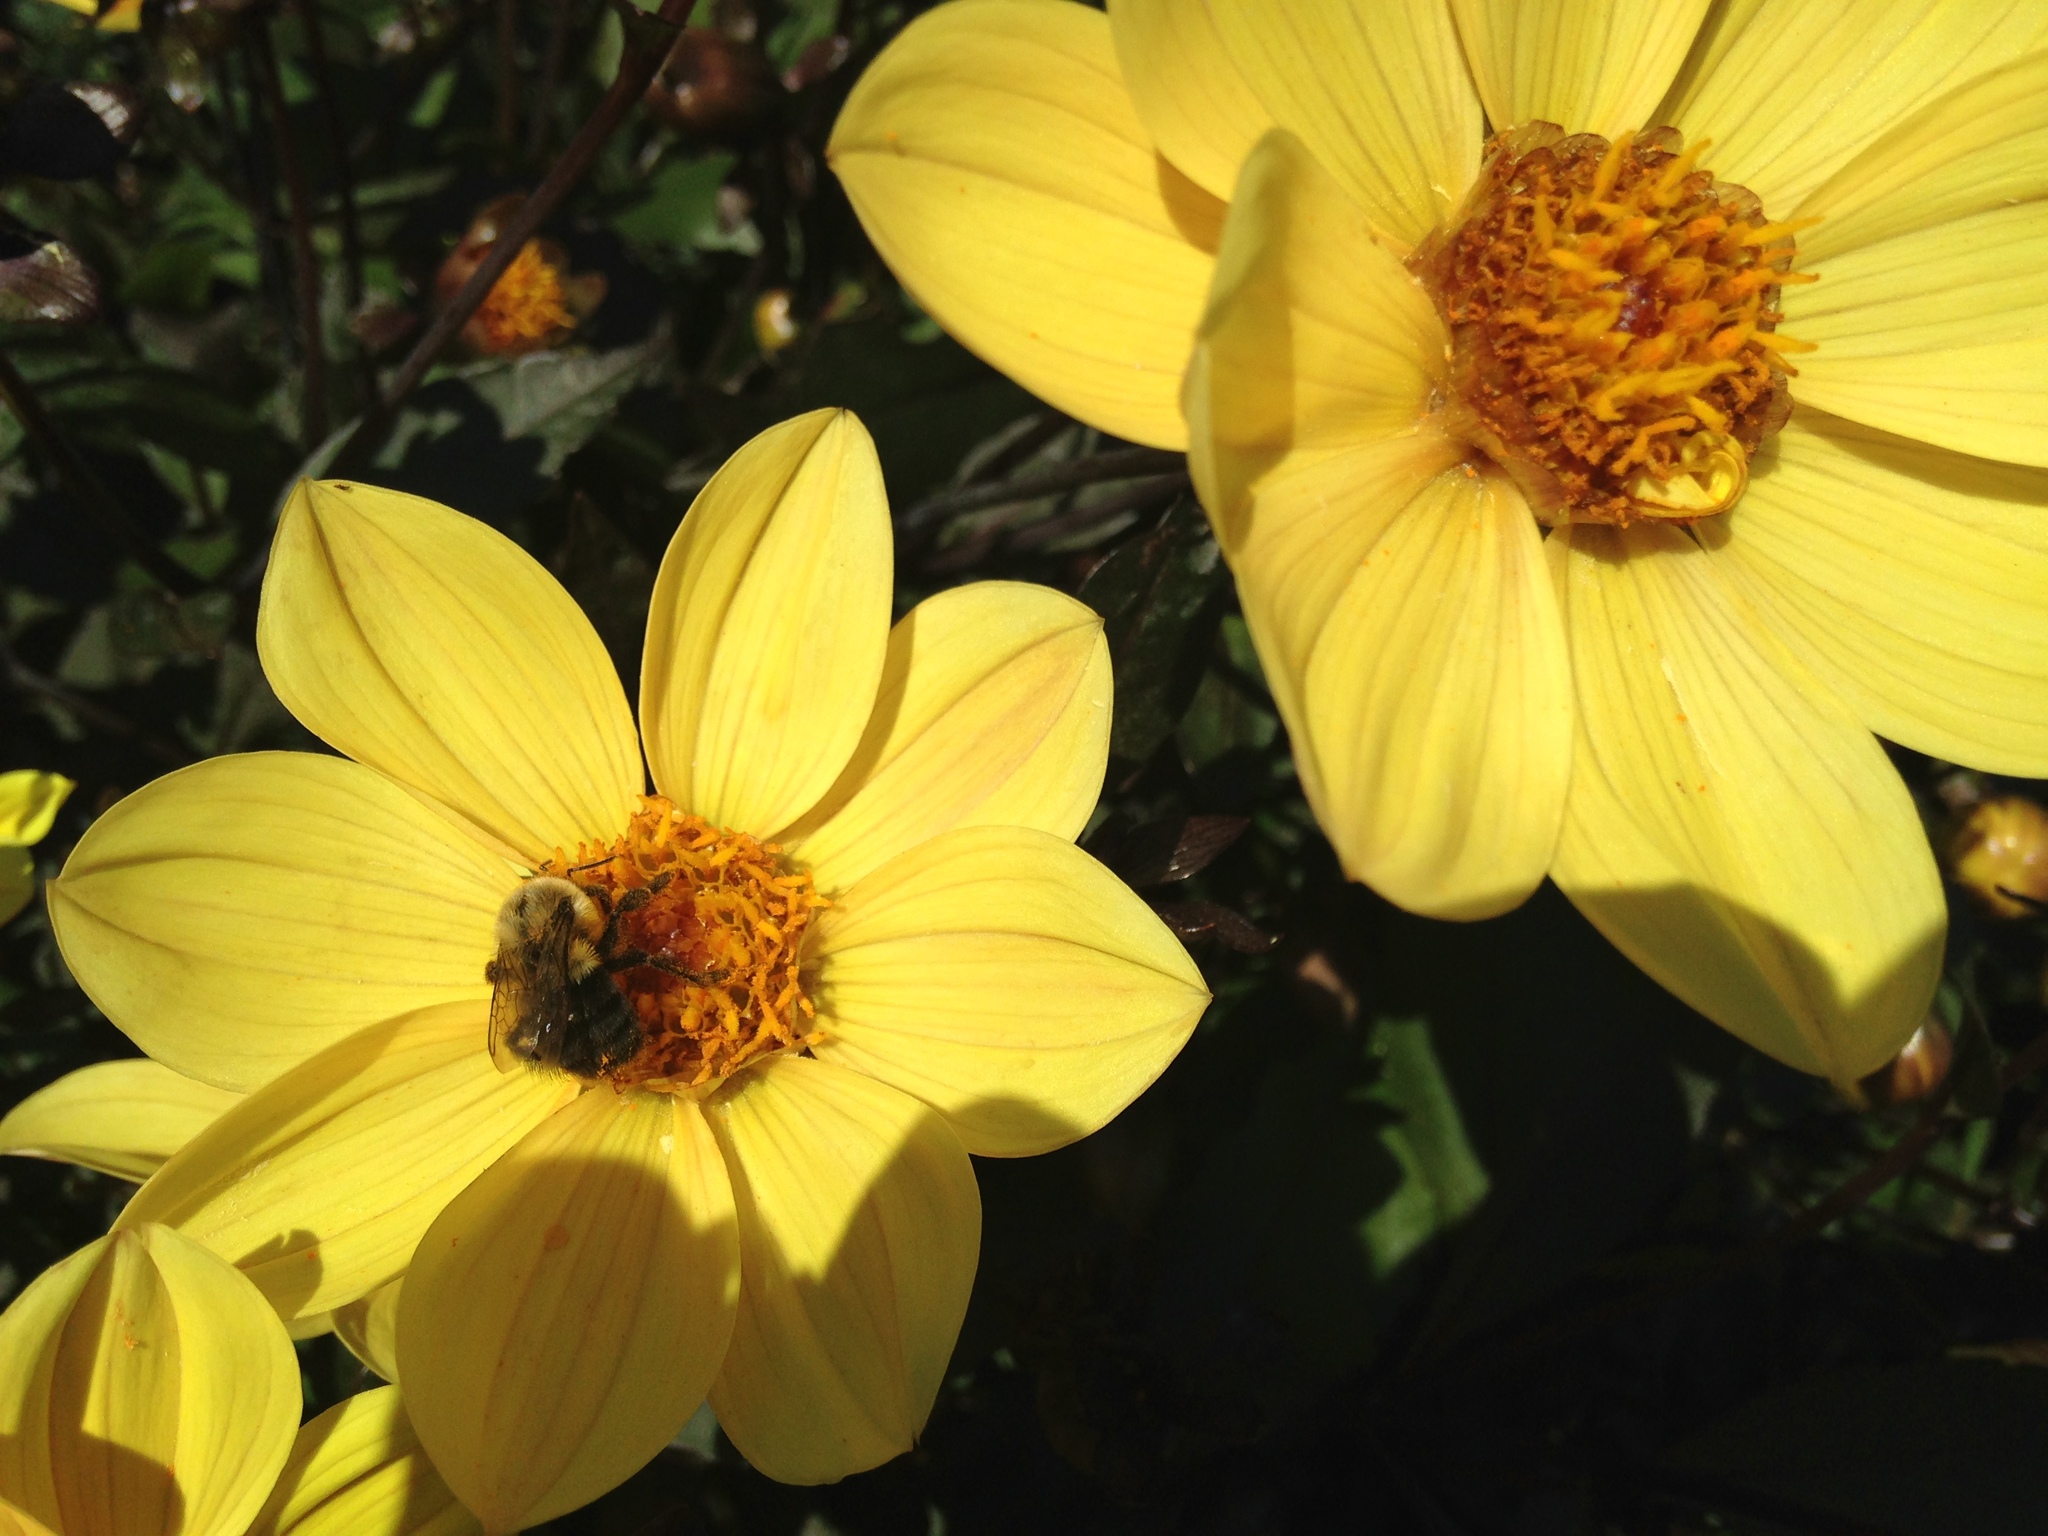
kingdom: Animalia
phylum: Arthropoda
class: Insecta
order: Hymenoptera
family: Apidae
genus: Bombus
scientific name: Bombus impatiens
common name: Common eastern bumble bee
